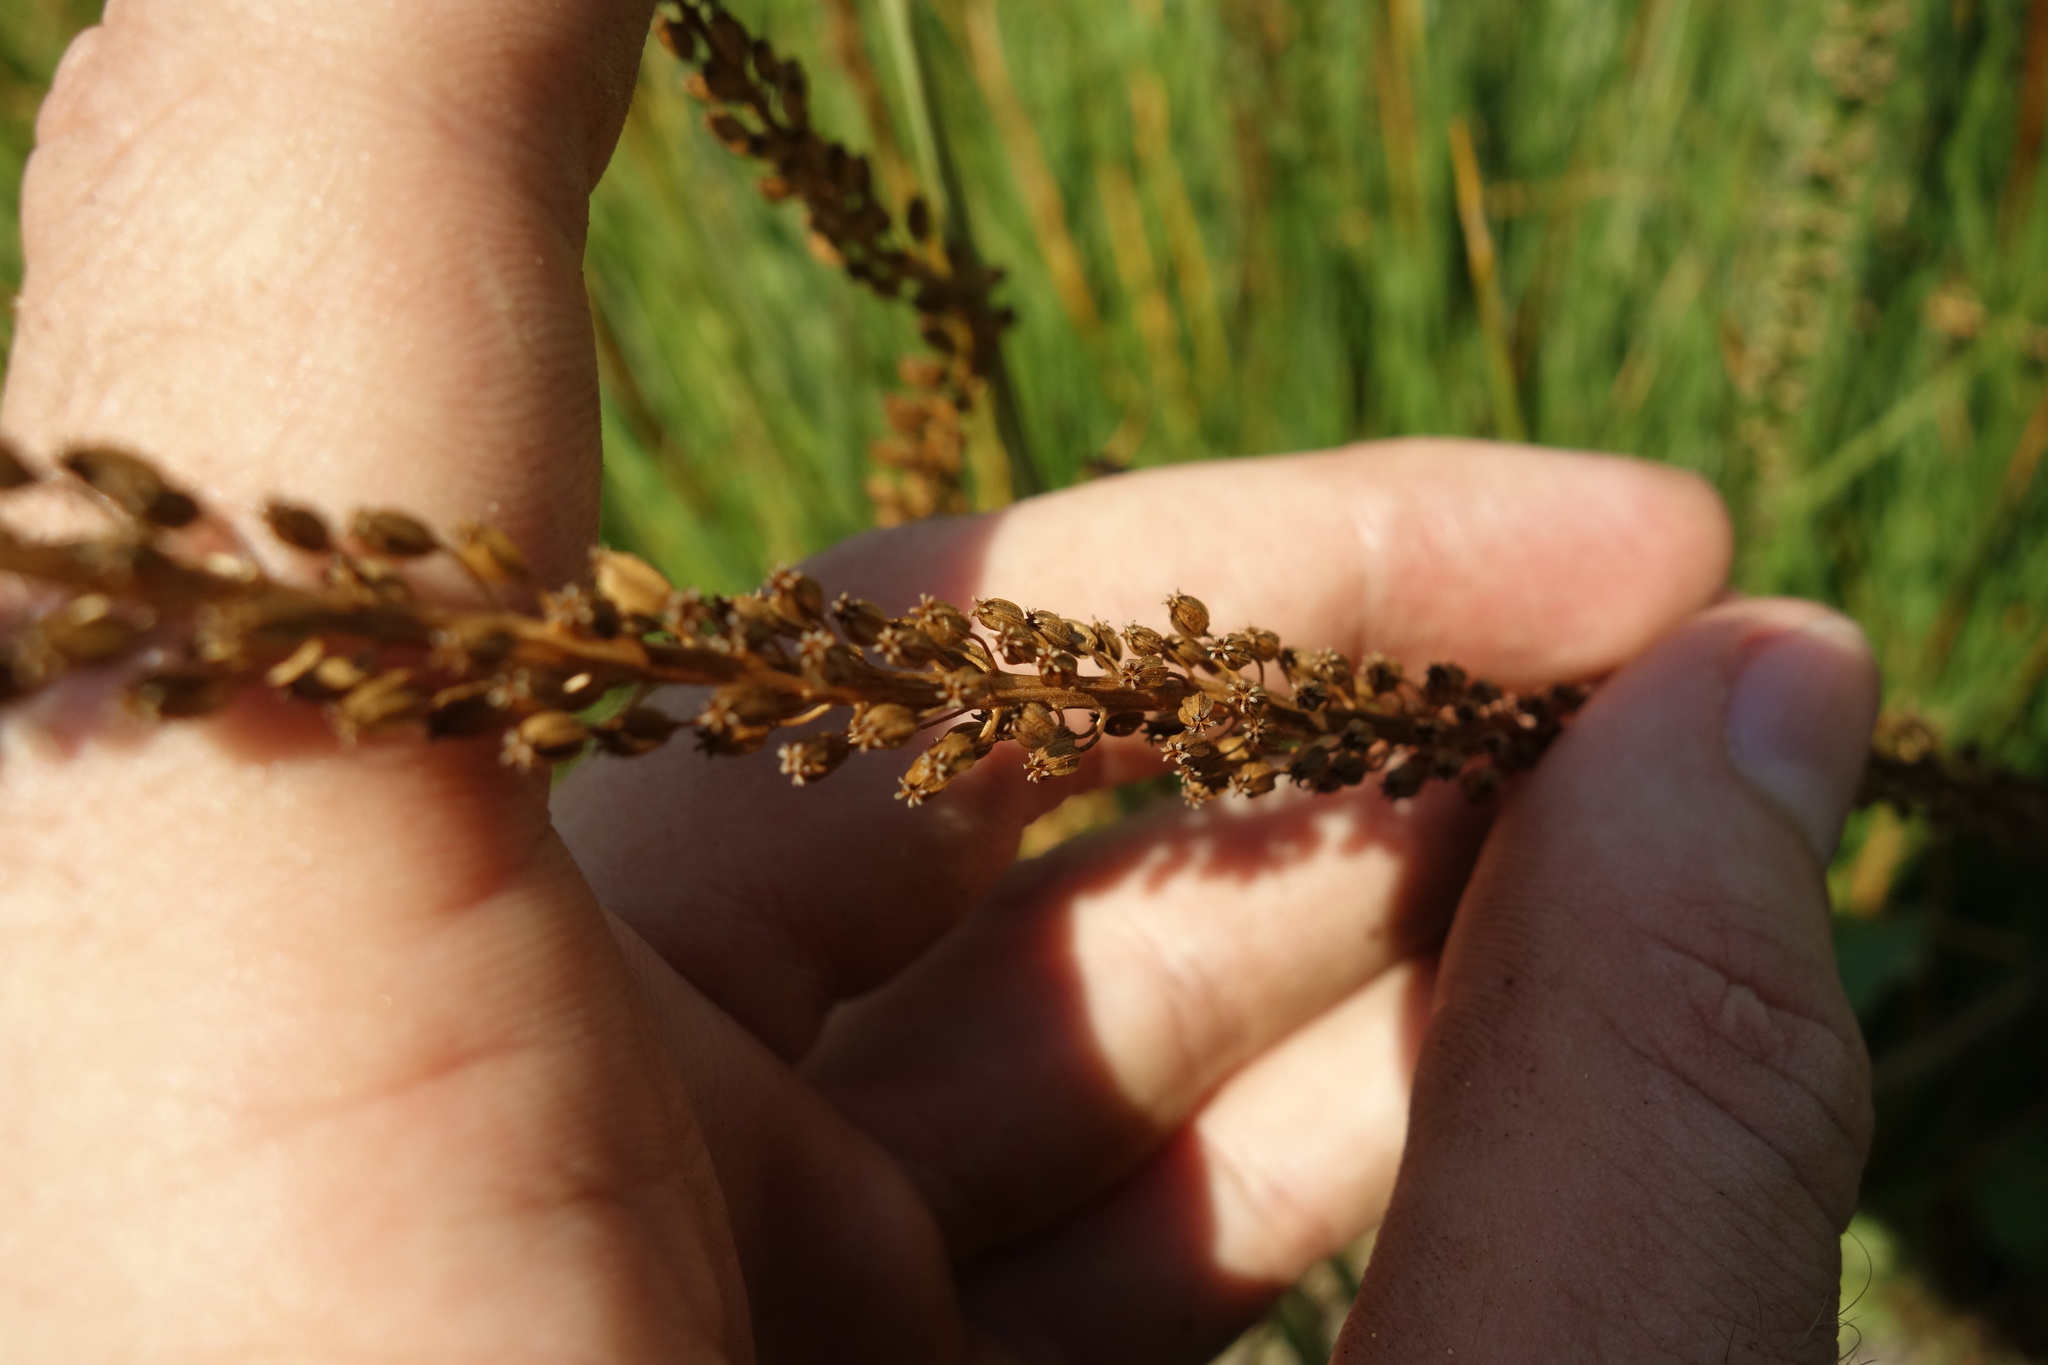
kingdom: Plantae
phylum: Tracheophyta
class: Liliopsida
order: Alismatales
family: Juncaginaceae
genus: Triglochin
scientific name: Triglochin maritima
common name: Sea arrowgrass
